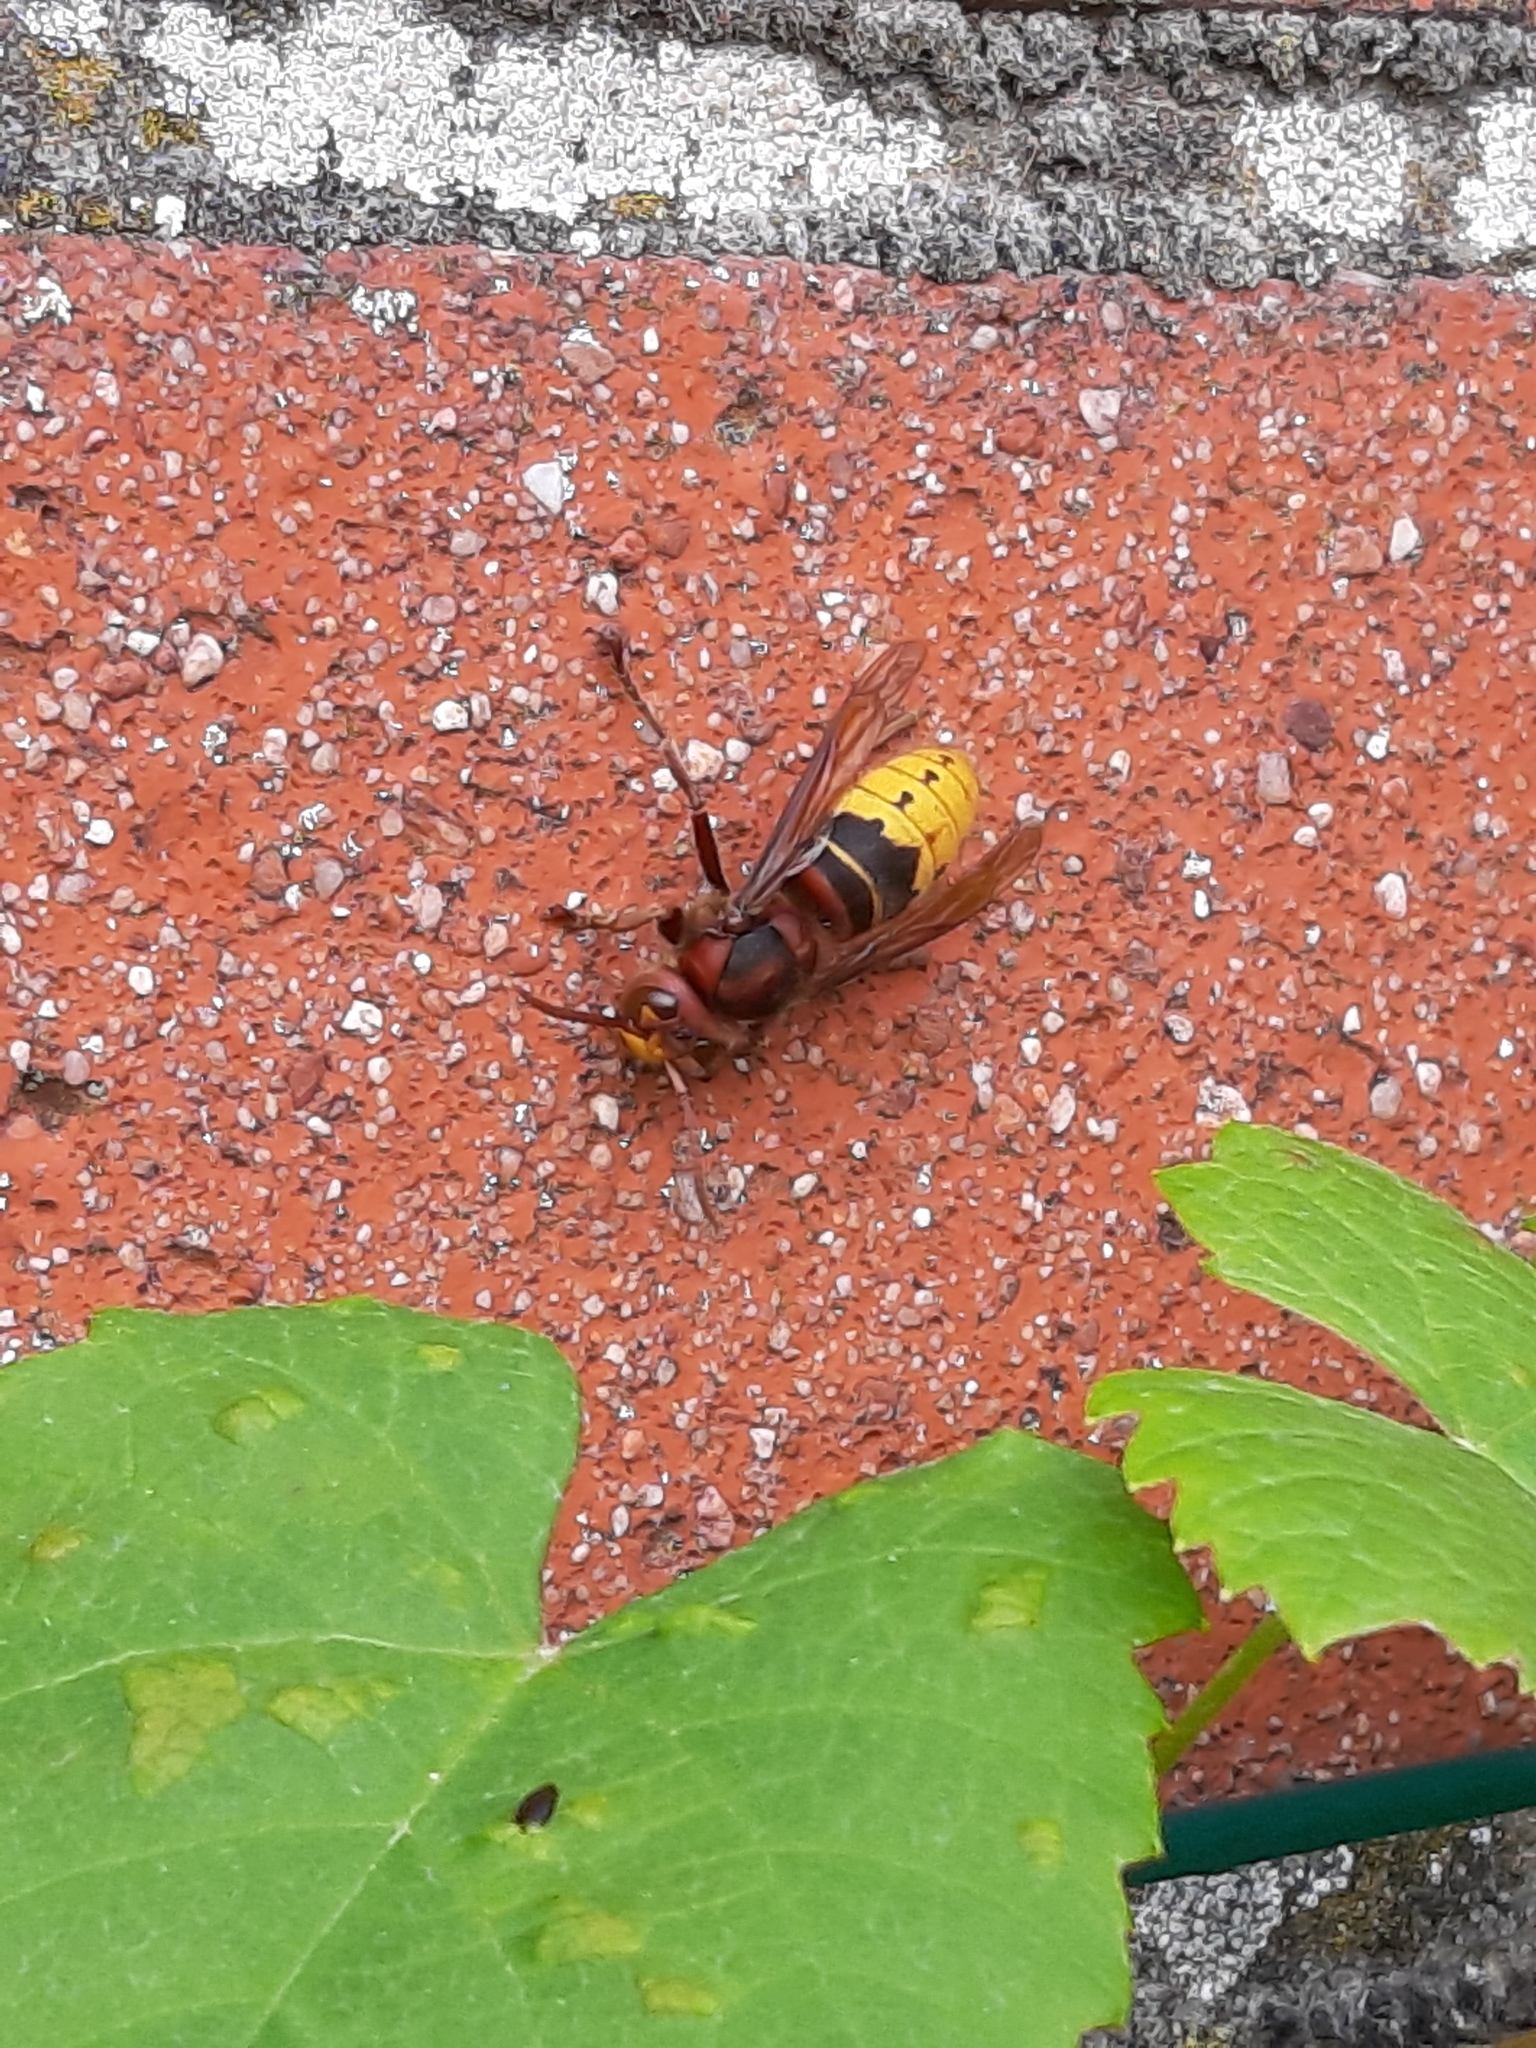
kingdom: Animalia
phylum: Arthropoda
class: Insecta
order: Hymenoptera
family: Vespidae
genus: Vespa
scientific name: Vespa crabro
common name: Hornet
